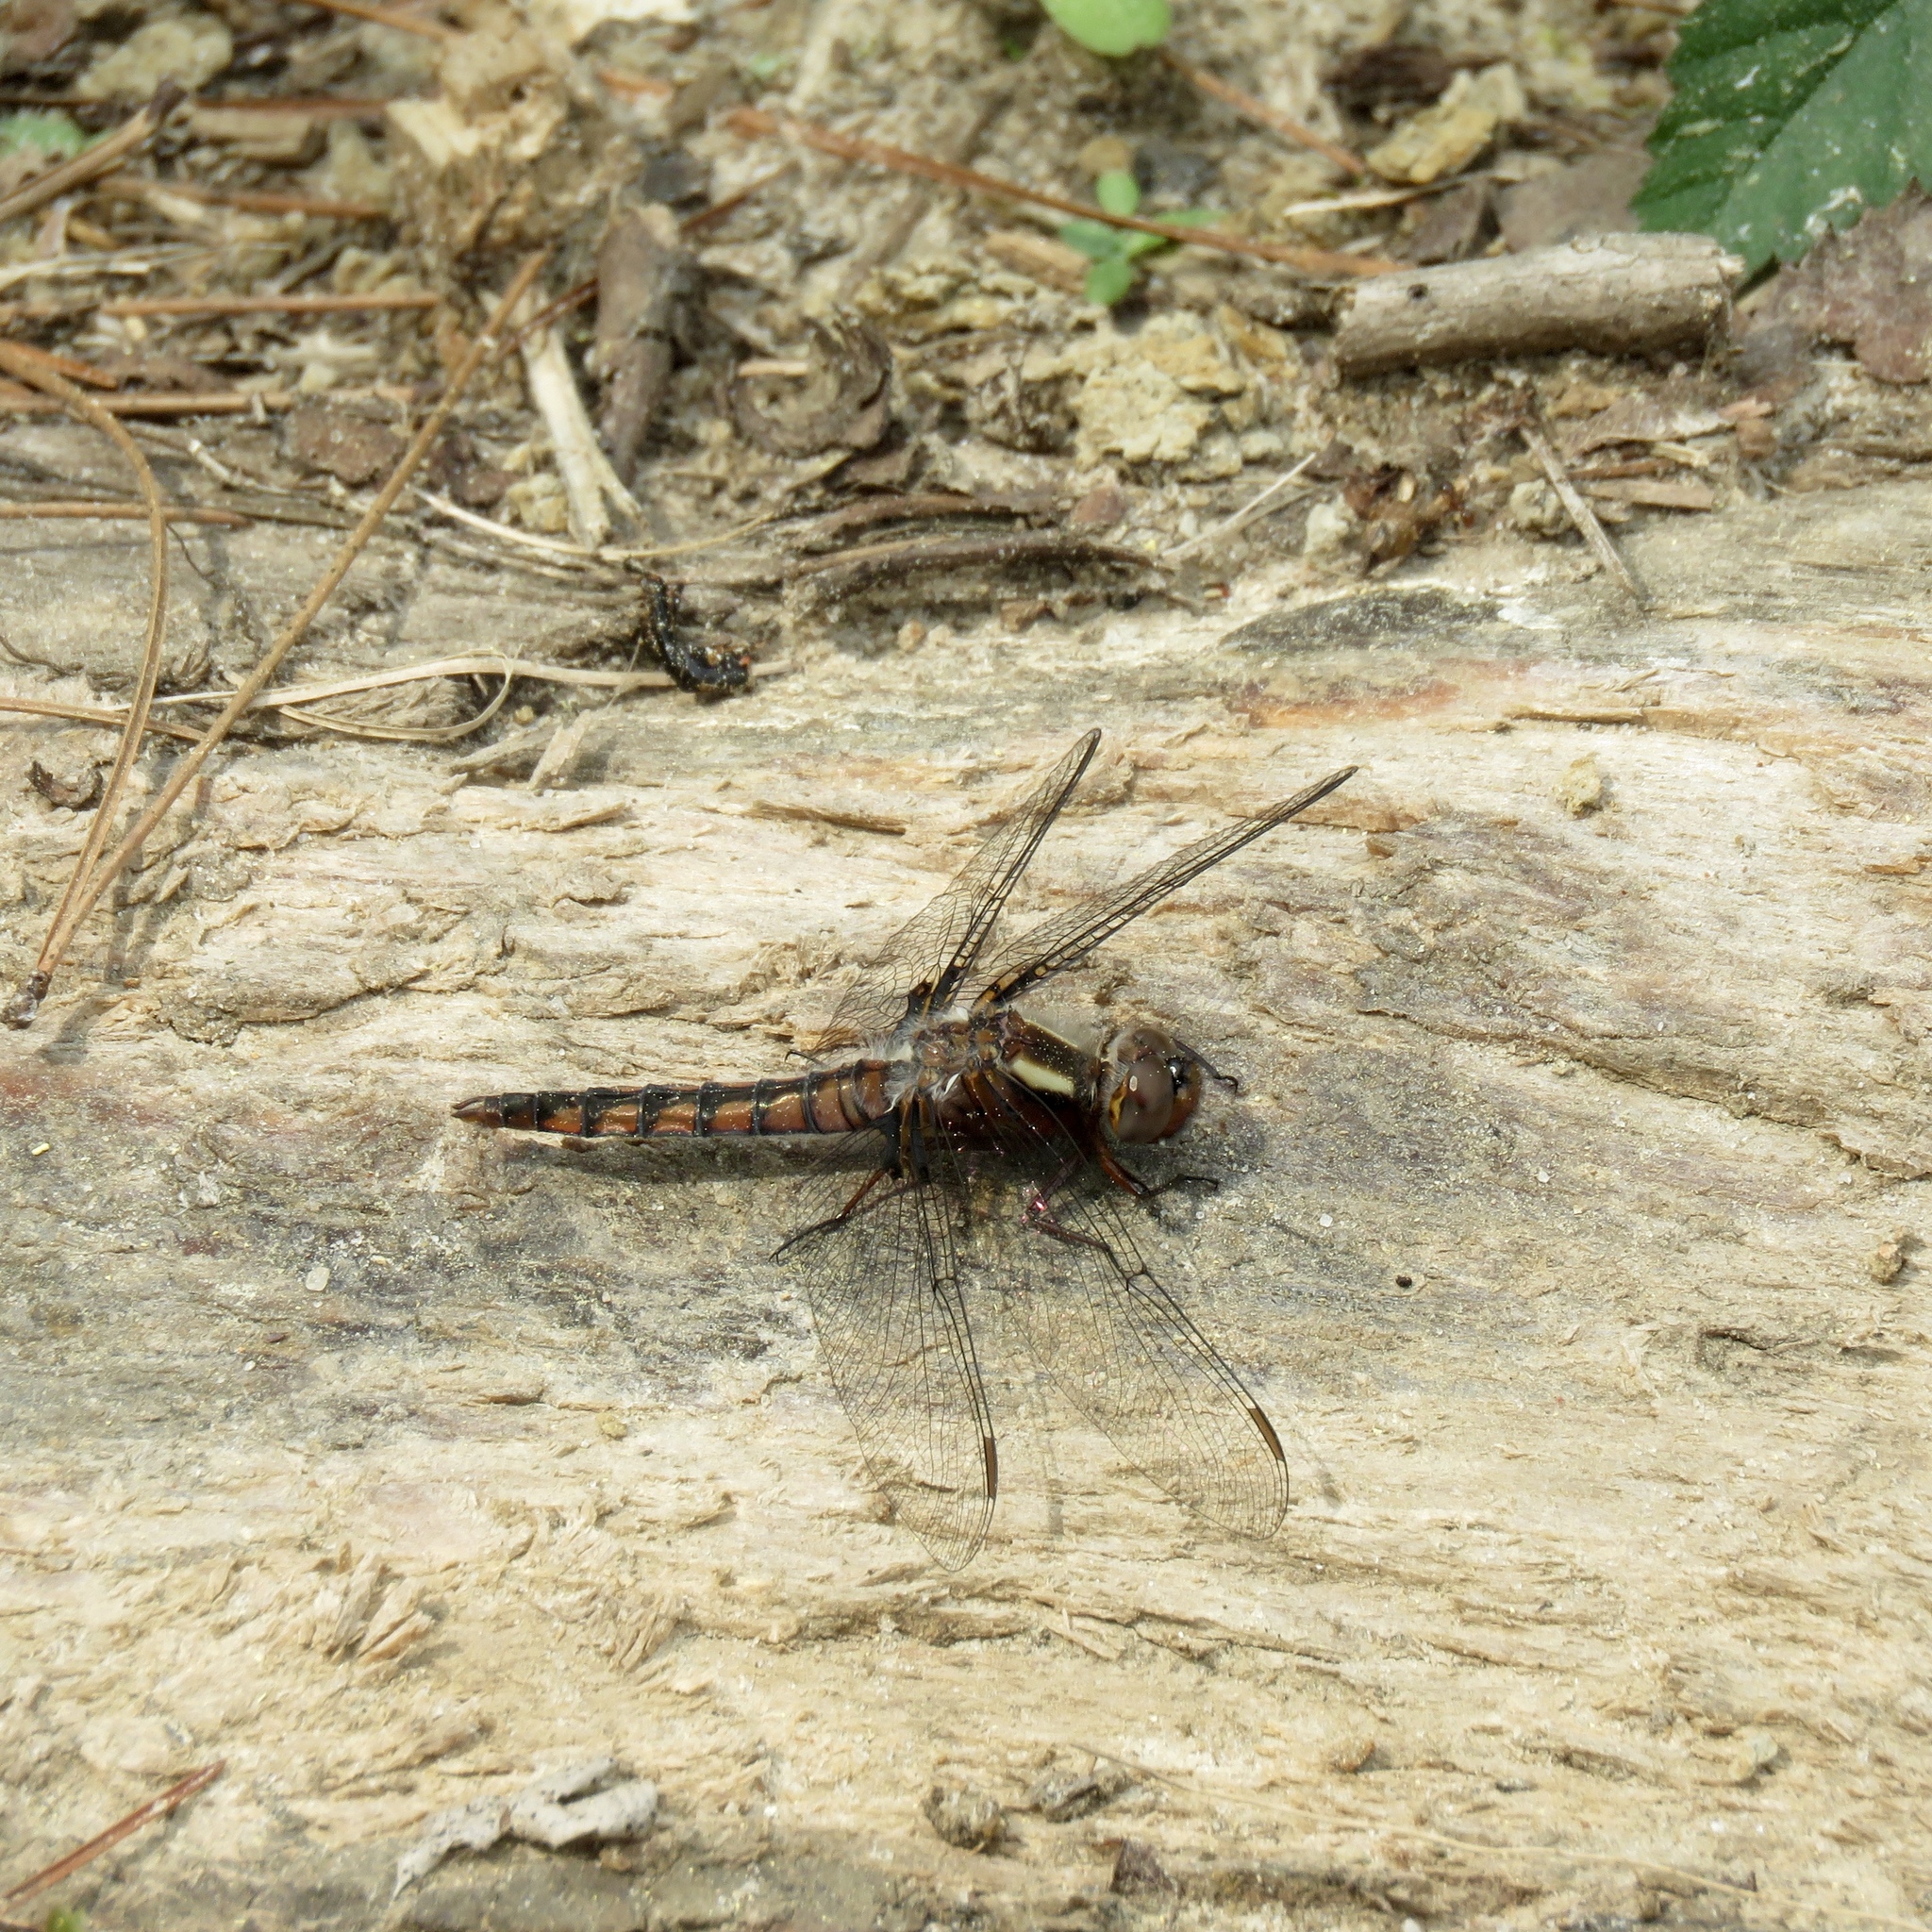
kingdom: Animalia
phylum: Arthropoda
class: Insecta
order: Odonata
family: Libellulidae
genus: Ladona
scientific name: Ladona deplanata
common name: Blue corporal
